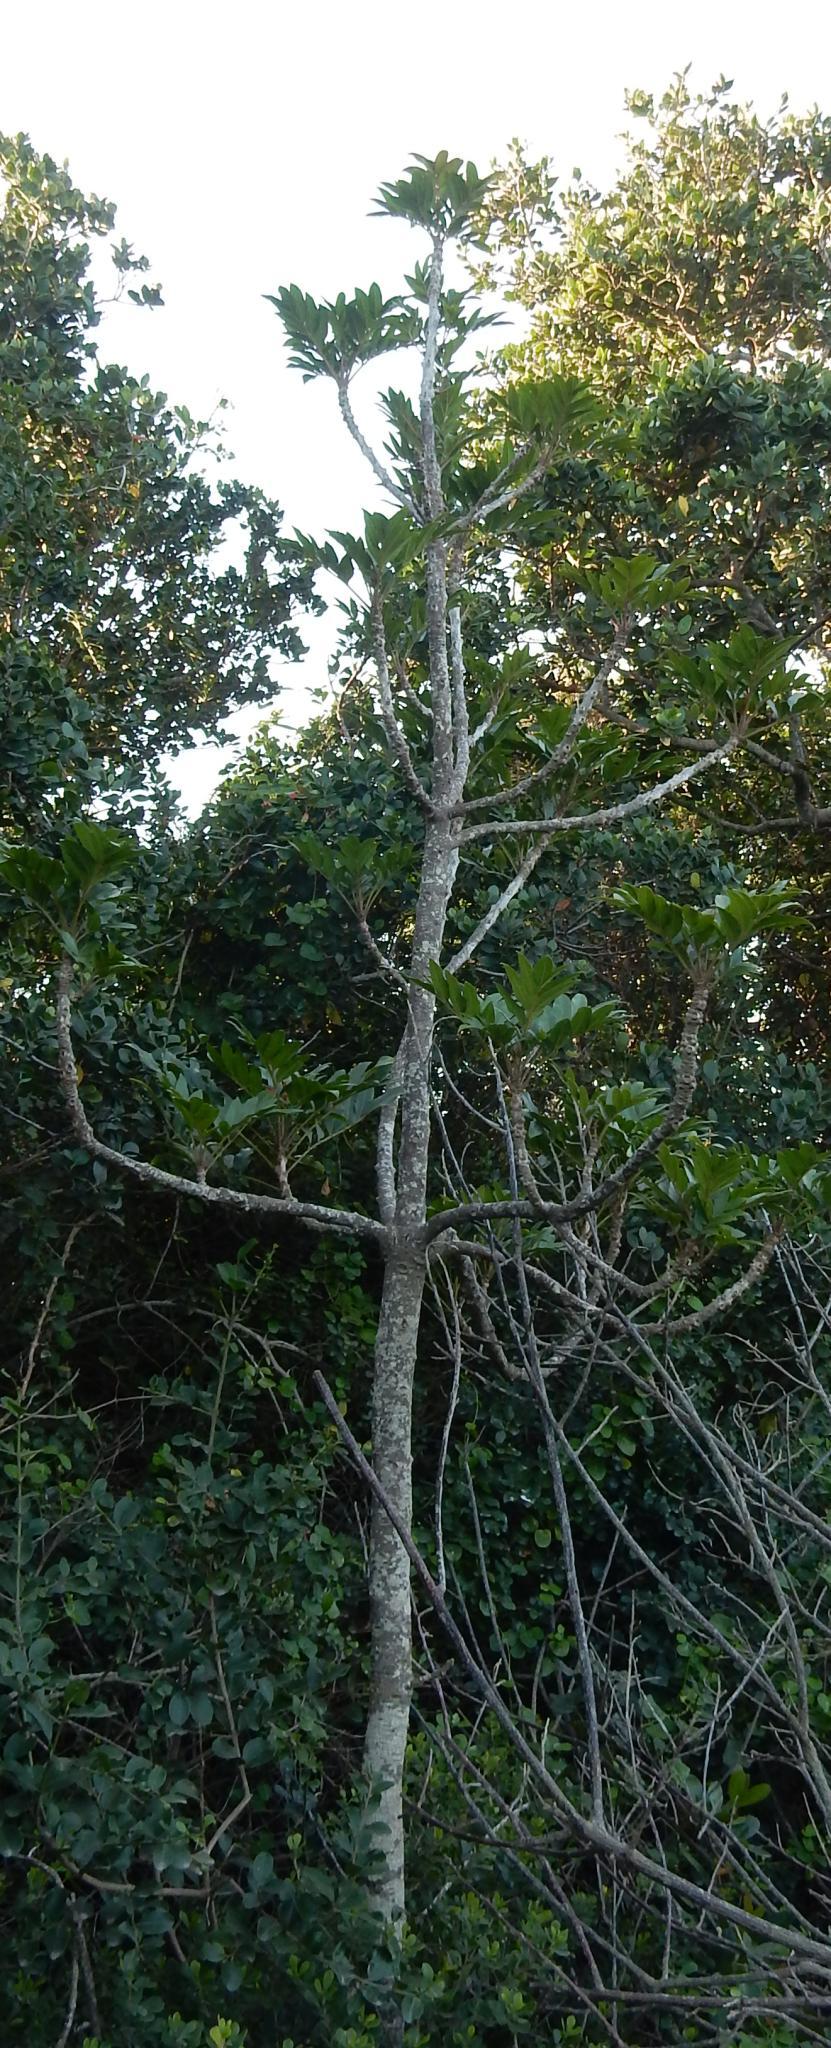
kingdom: Plantae
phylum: Tracheophyta
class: Magnoliopsida
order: Sapindales
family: Meliaceae
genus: Ekebergia
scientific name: Ekebergia capensis
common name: Cape-ash
